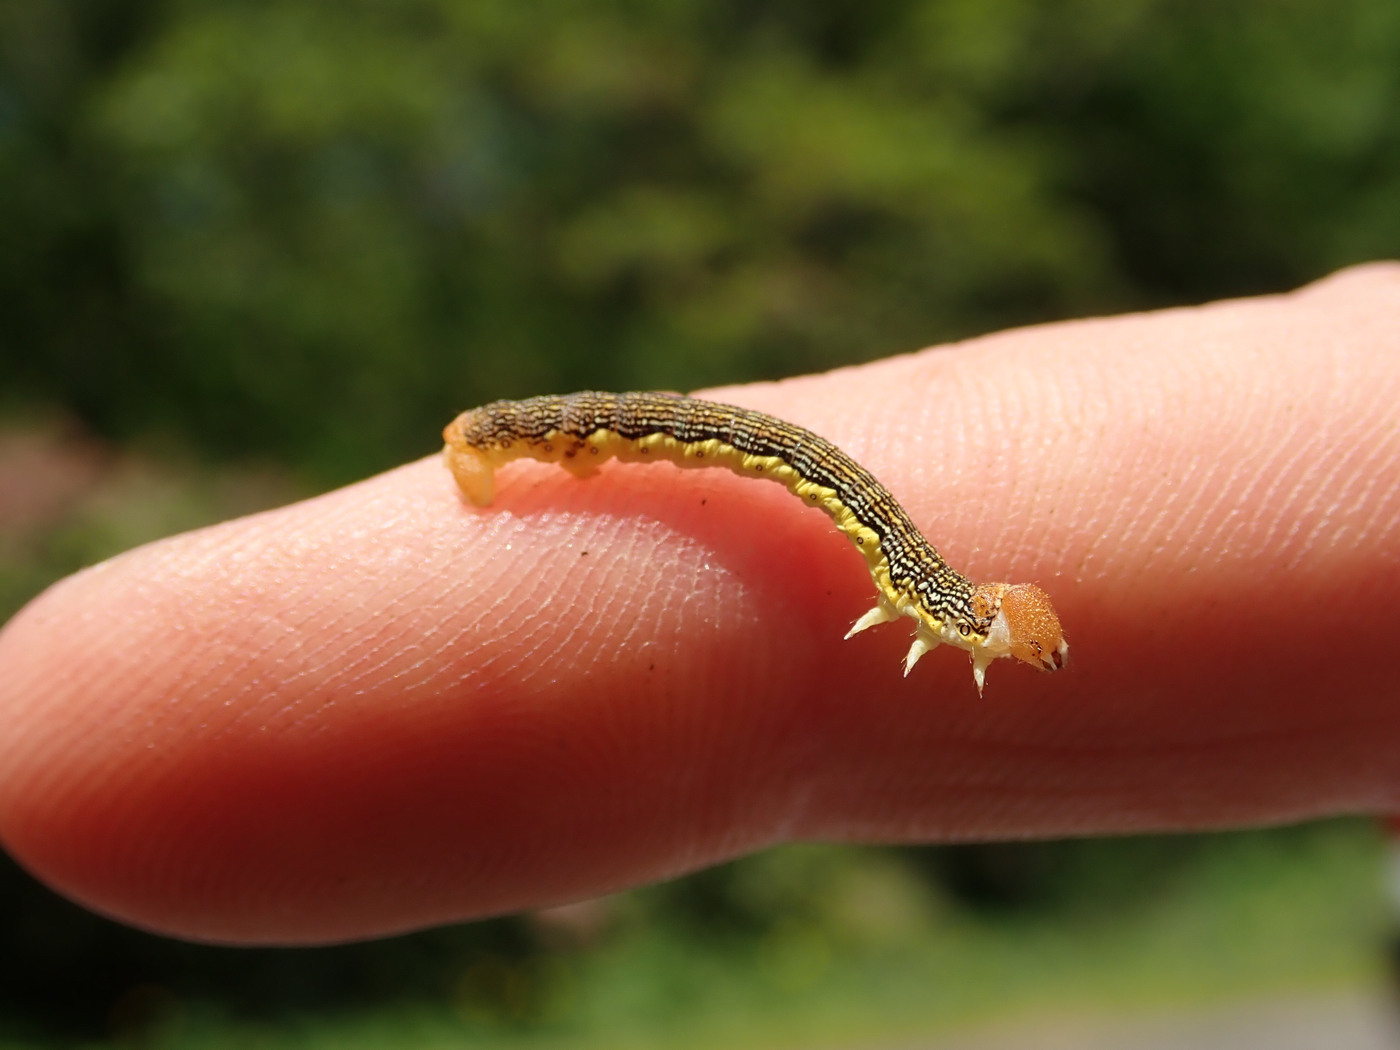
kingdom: Animalia
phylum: Arthropoda
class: Insecta
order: Lepidoptera
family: Geometridae
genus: Erannis
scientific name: Erannis tiliaria
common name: Linden looper
